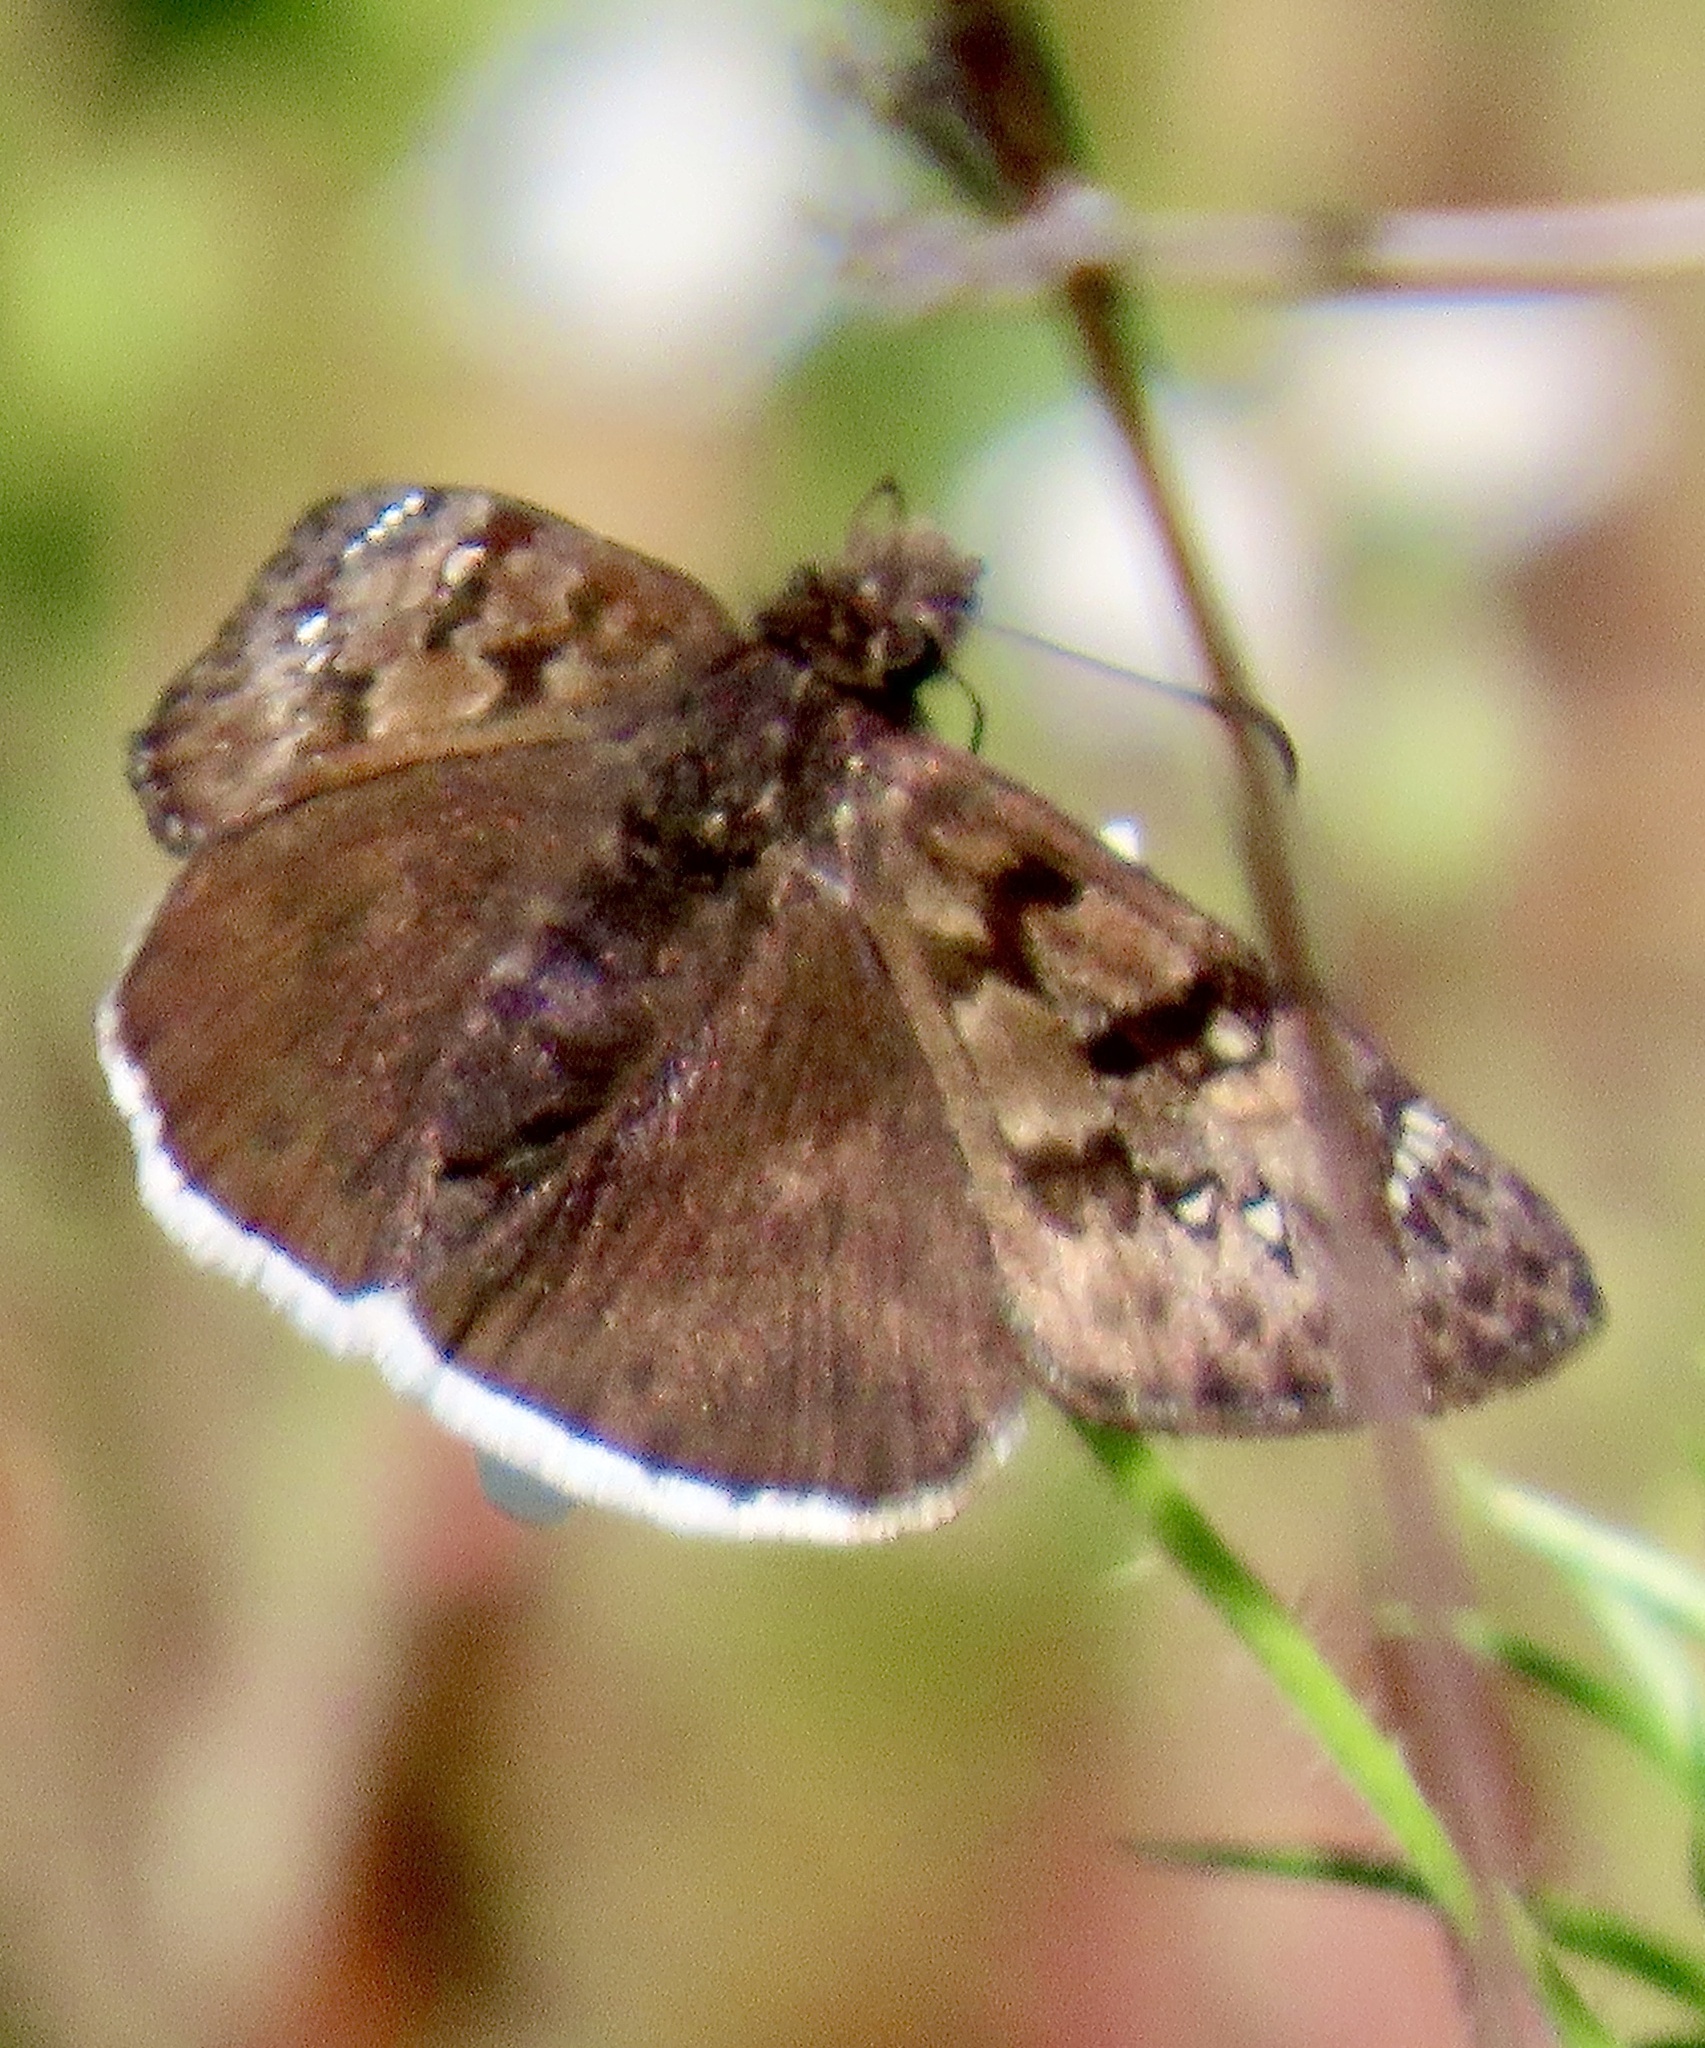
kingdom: Animalia
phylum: Arthropoda
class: Insecta
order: Lepidoptera
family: Hesperiidae
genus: Erynnis
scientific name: Erynnis tristis
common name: Mournful duskywing
